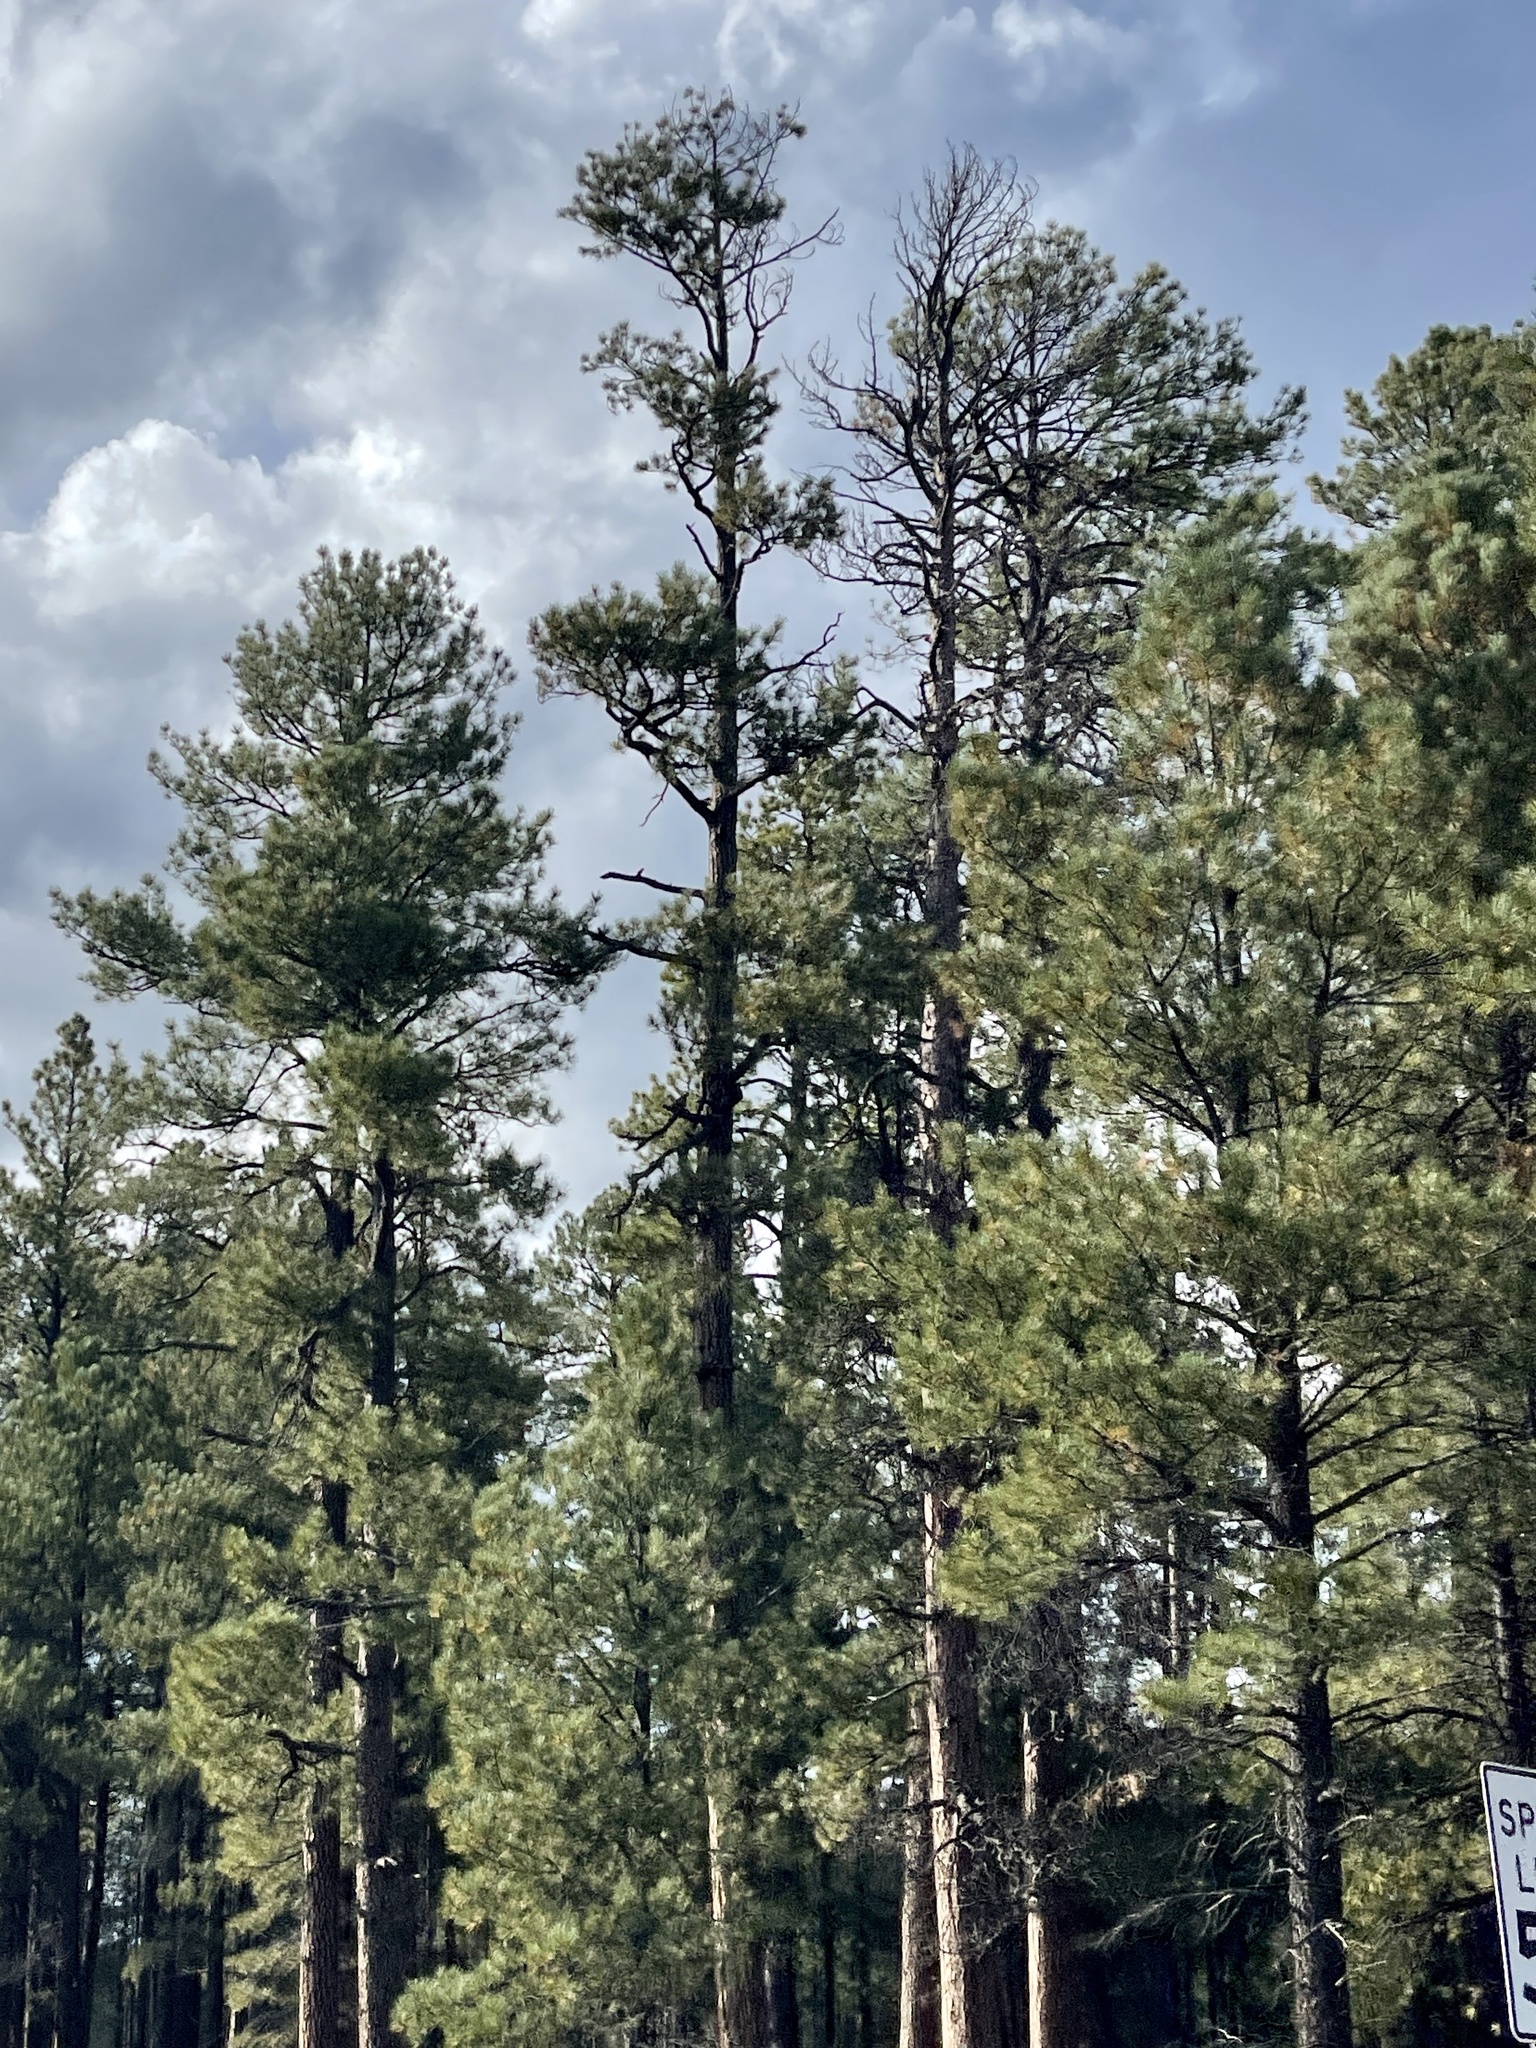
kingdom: Plantae
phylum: Tracheophyta
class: Pinopsida
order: Pinales
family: Pinaceae
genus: Pinus
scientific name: Pinus ponderosa
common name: Western yellow-pine
